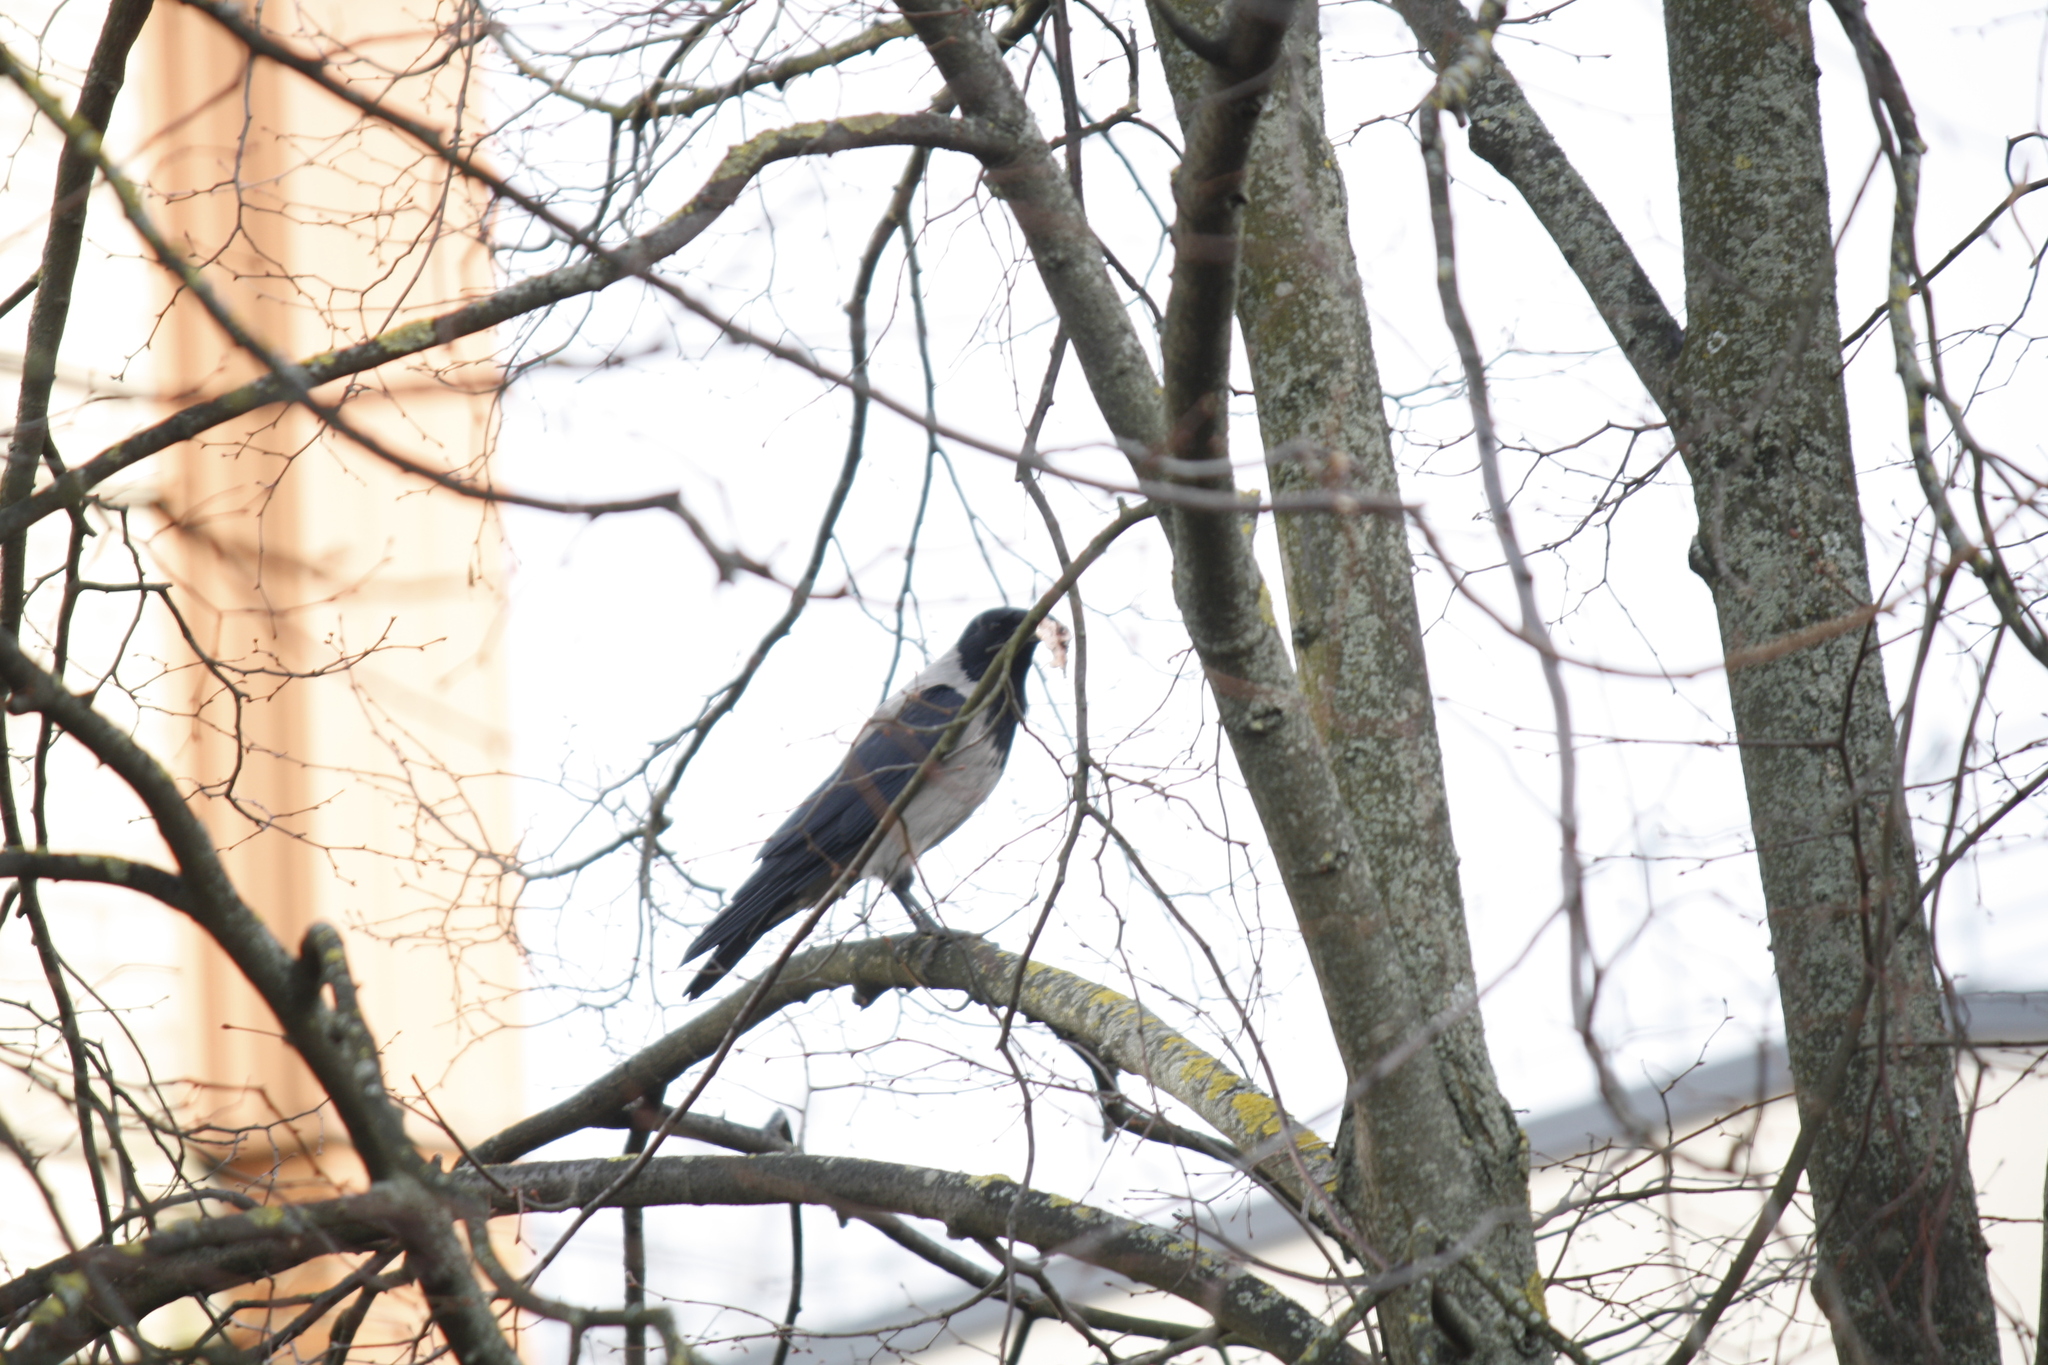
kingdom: Animalia
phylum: Chordata
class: Aves
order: Passeriformes
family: Corvidae
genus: Corvus
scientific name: Corvus cornix
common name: Hooded crow
